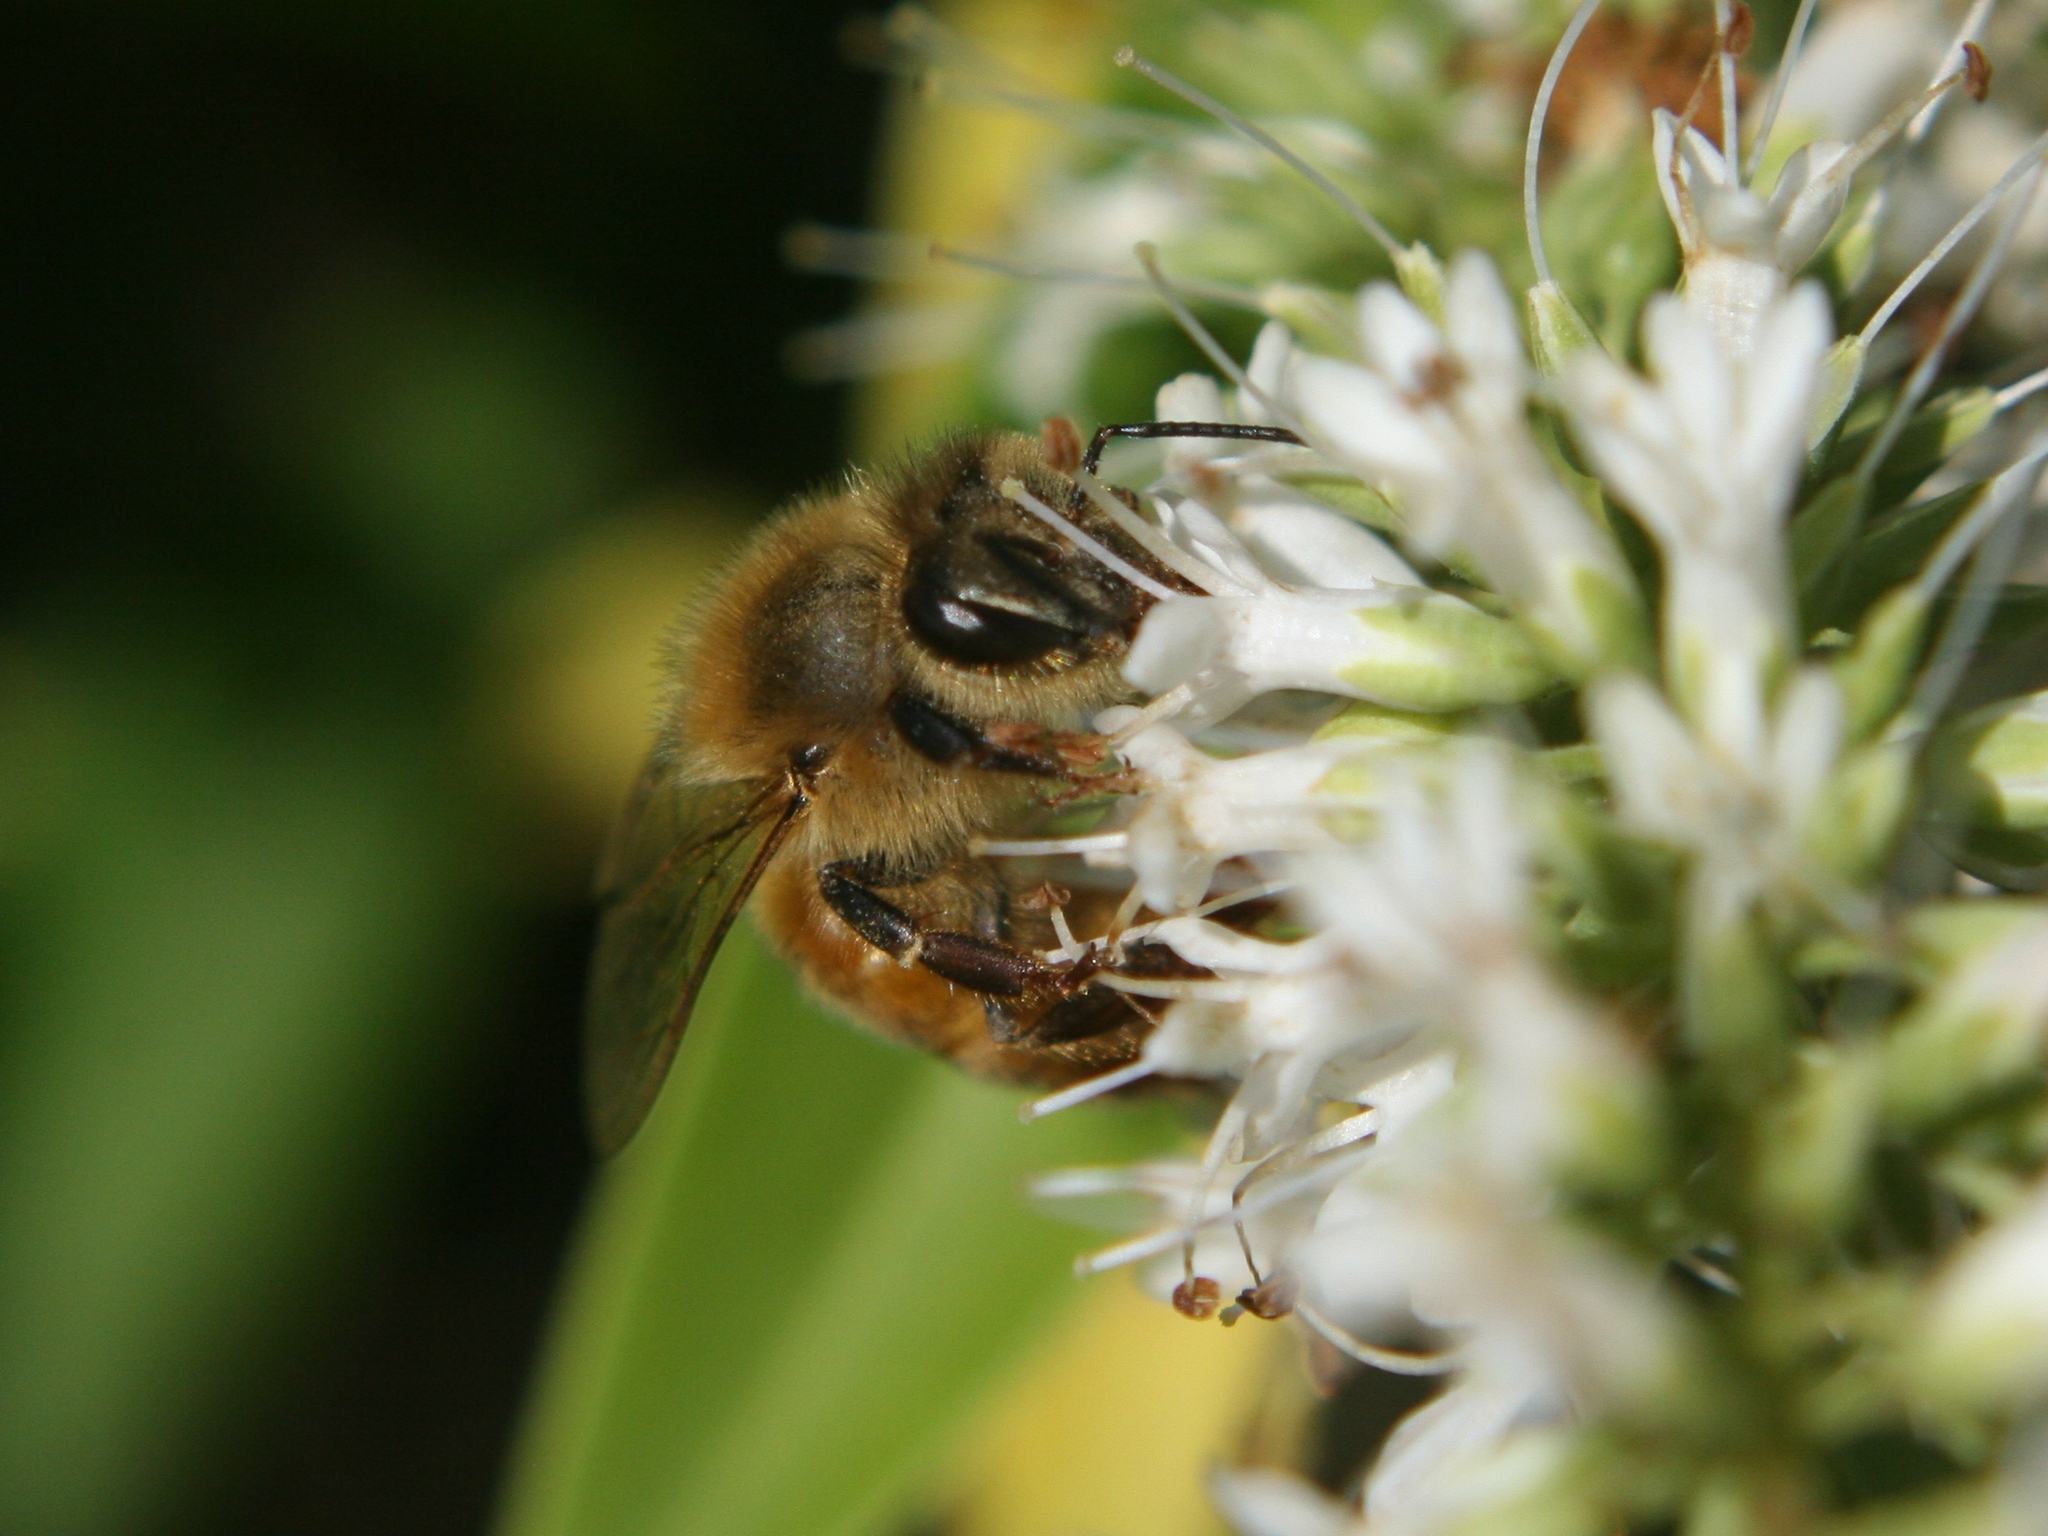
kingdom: Animalia
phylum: Arthropoda
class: Insecta
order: Hymenoptera
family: Apidae
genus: Apis
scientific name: Apis mellifera
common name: Honey bee
